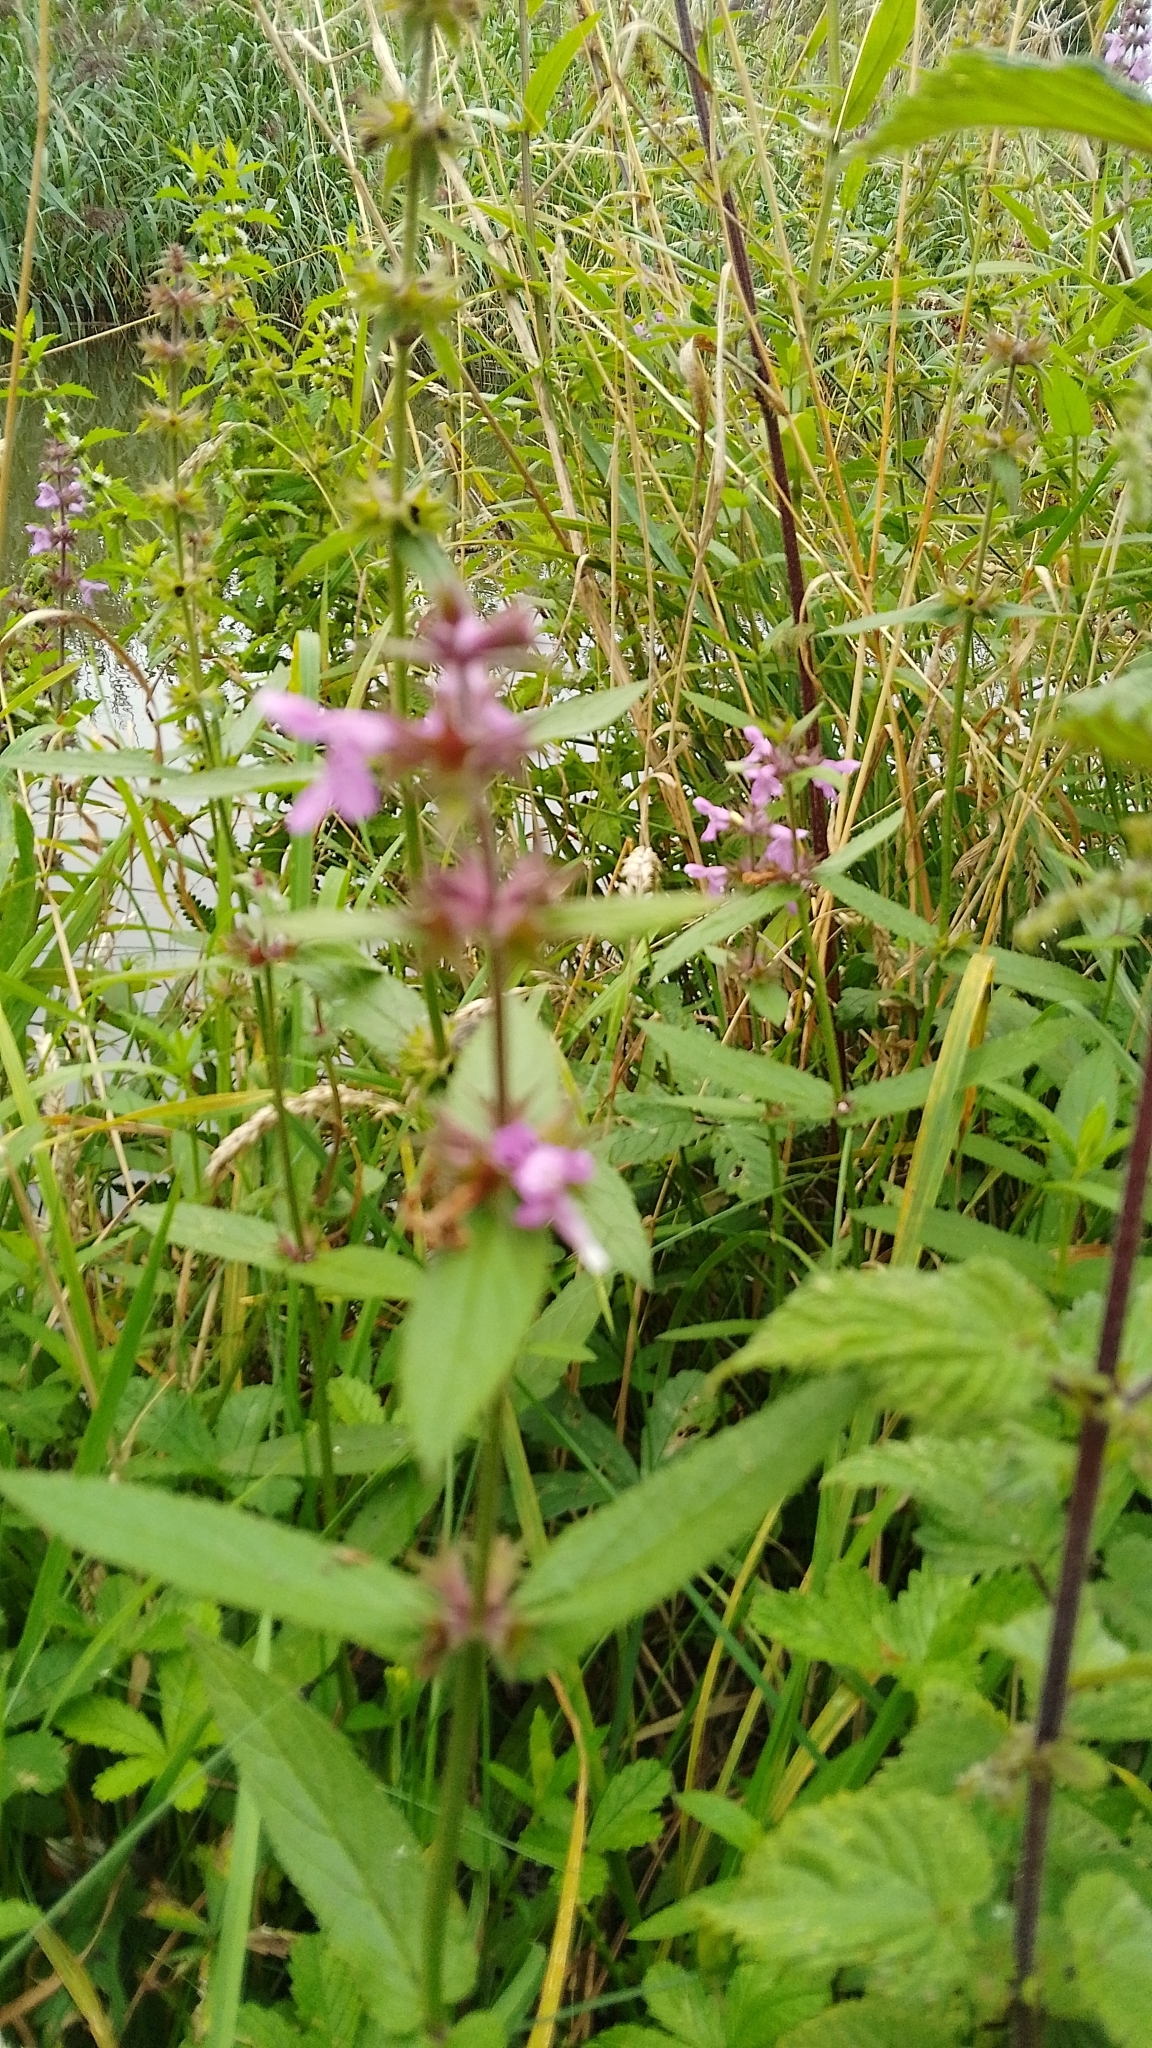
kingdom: Plantae
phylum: Tracheophyta
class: Magnoliopsida
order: Lamiales
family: Lamiaceae
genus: Stachys
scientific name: Stachys palustris
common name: Marsh woundwort
